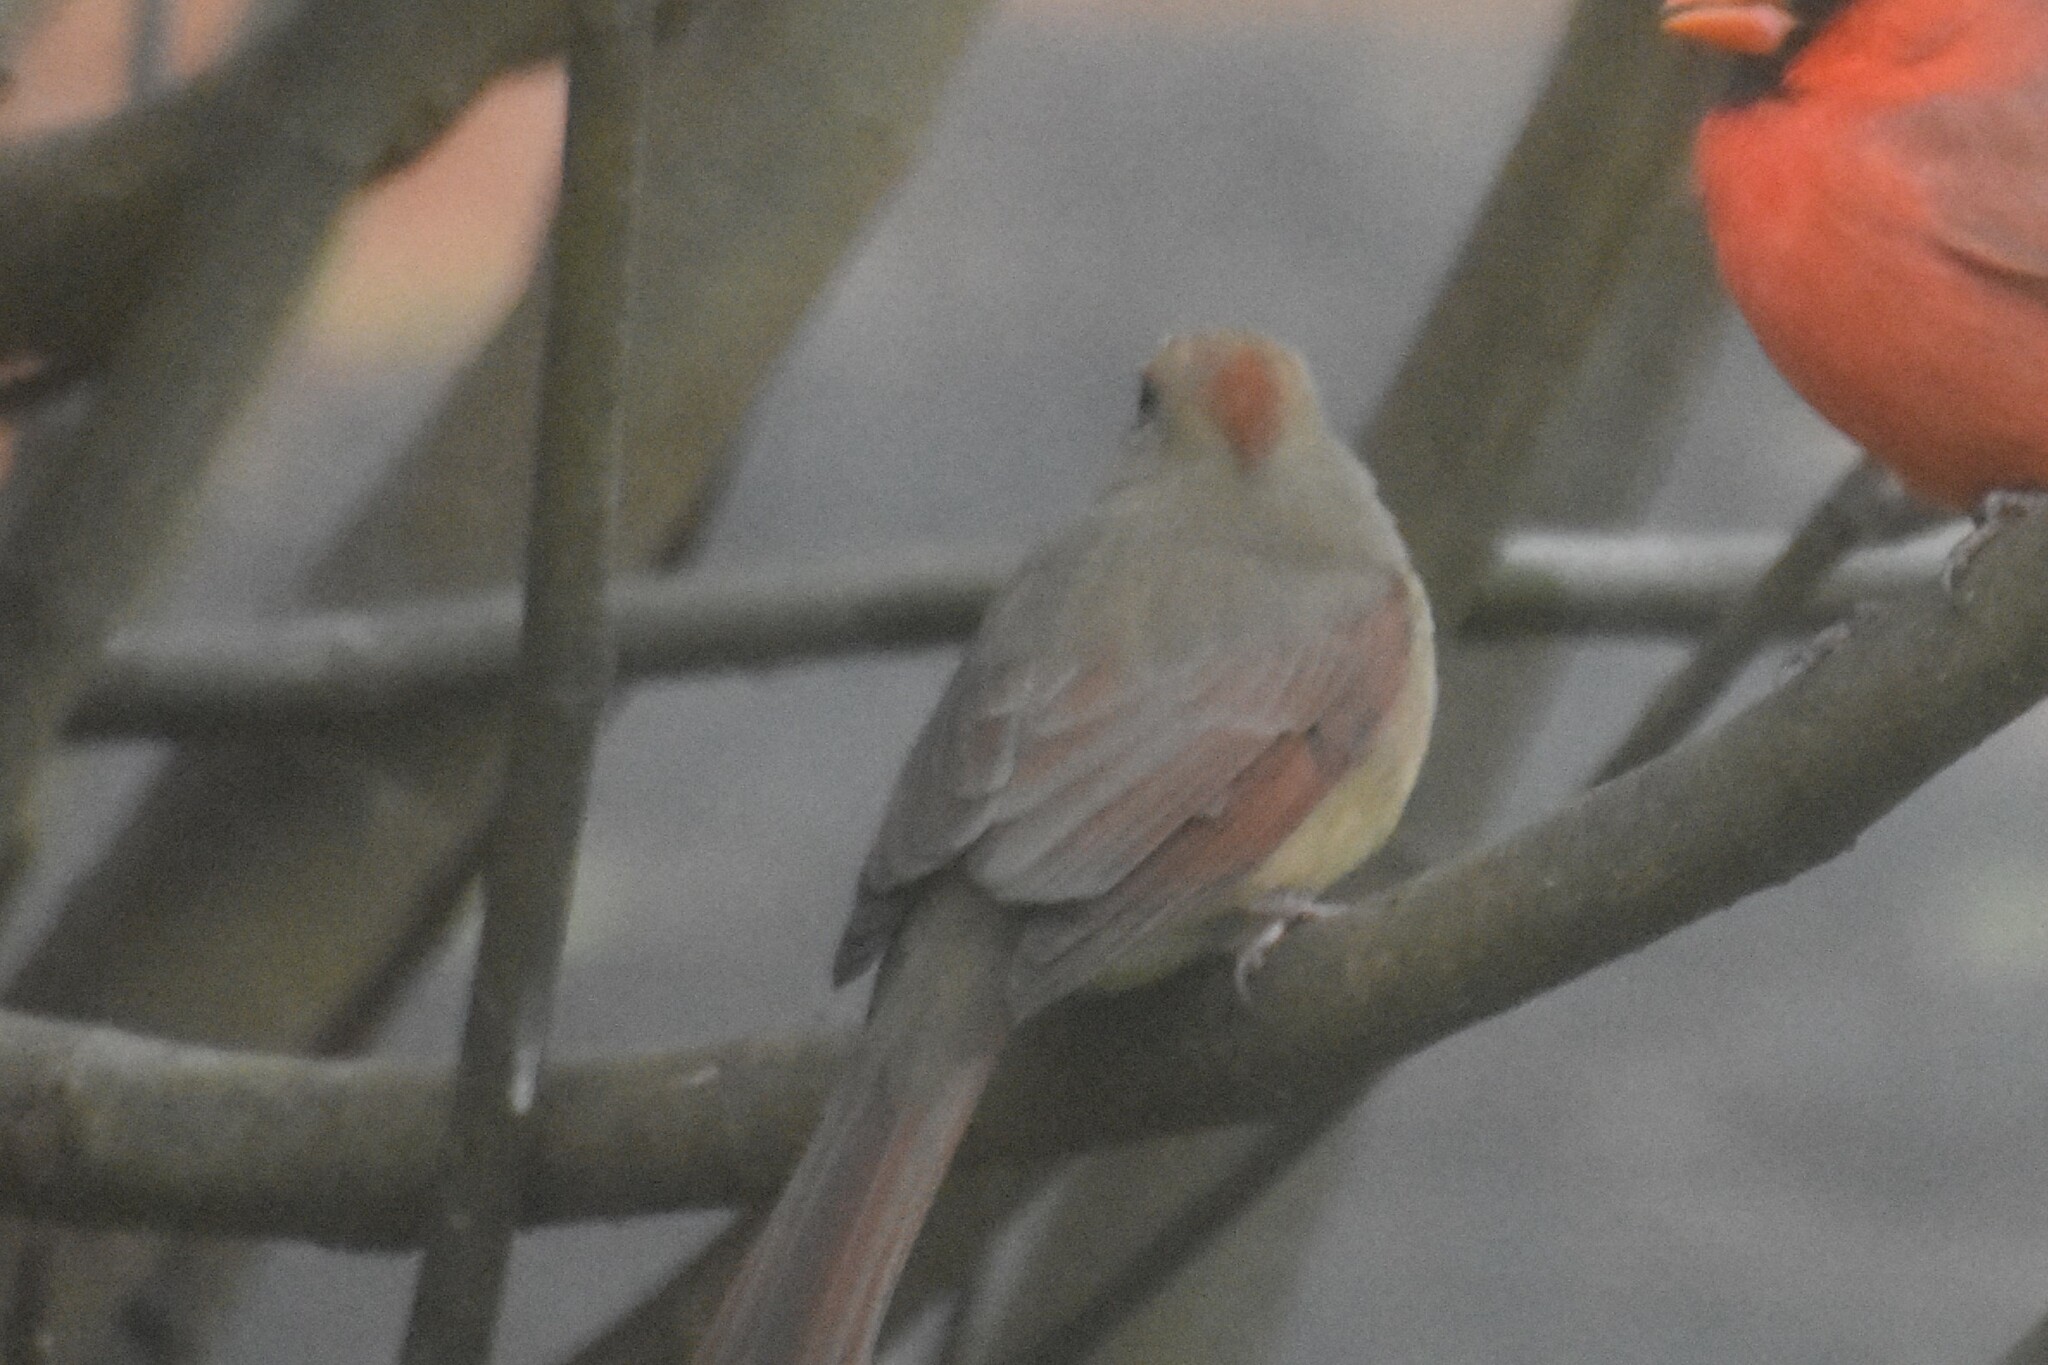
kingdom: Animalia
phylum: Chordata
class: Aves
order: Passeriformes
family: Cardinalidae
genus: Cardinalis
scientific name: Cardinalis cardinalis
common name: Northern cardinal
